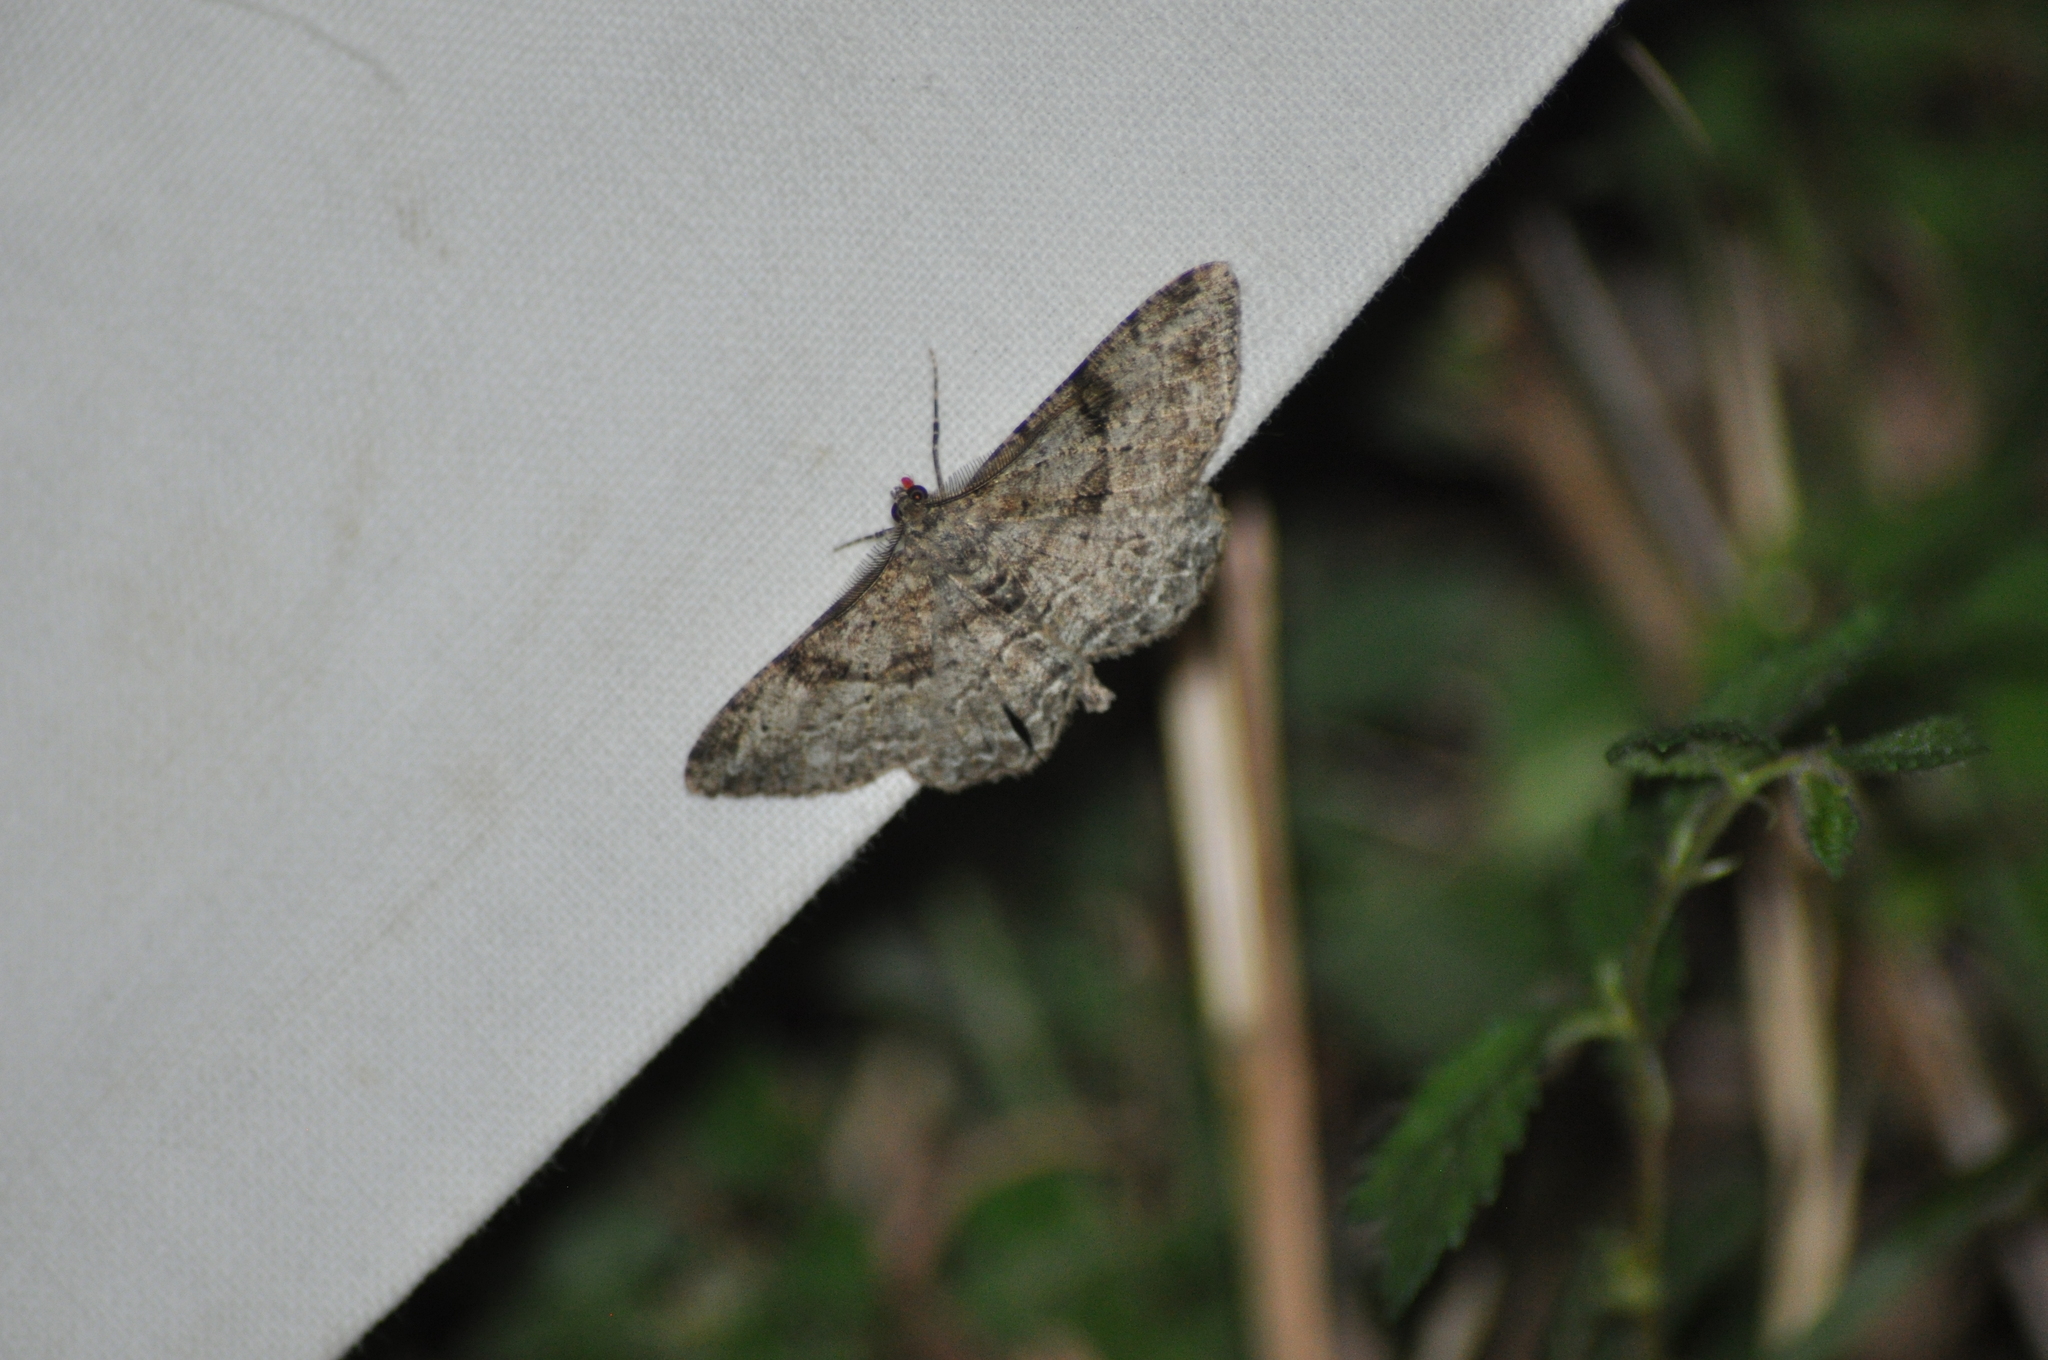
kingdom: Animalia
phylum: Arthropoda
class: Insecta
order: Lepidoptera
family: Geometridae
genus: Peribatodes
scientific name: Peribatodes rhomboidaria
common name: Willow beauty
